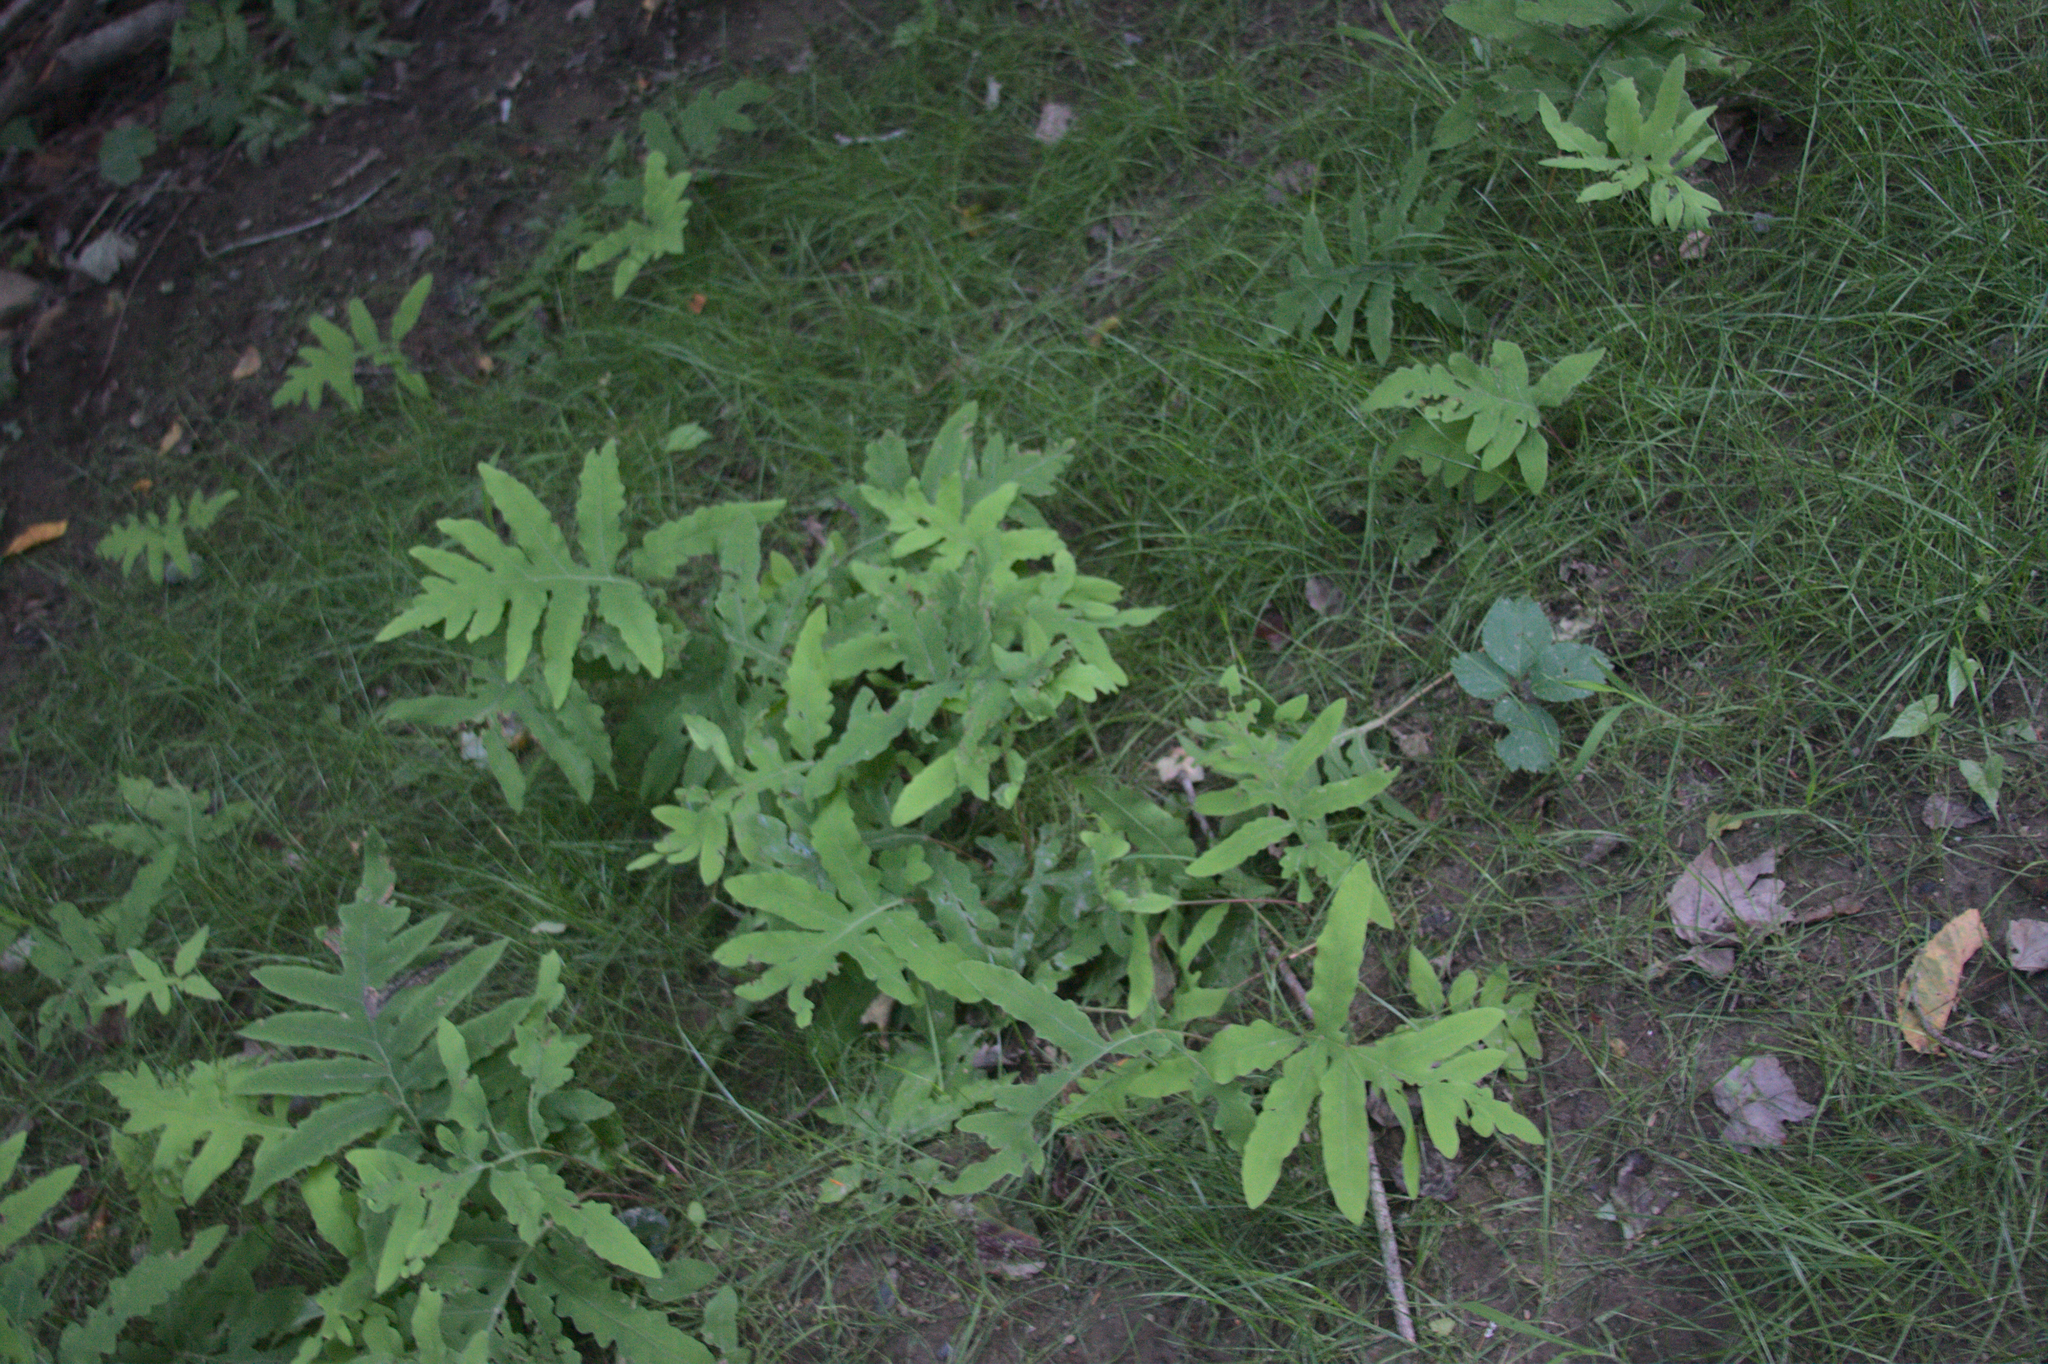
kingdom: Plantae
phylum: Tracheophyta
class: Polypodiopsida
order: Polypodiales
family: Onocleaceae
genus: Onoclea
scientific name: Onoclea sensibilis
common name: Sensitive fern
